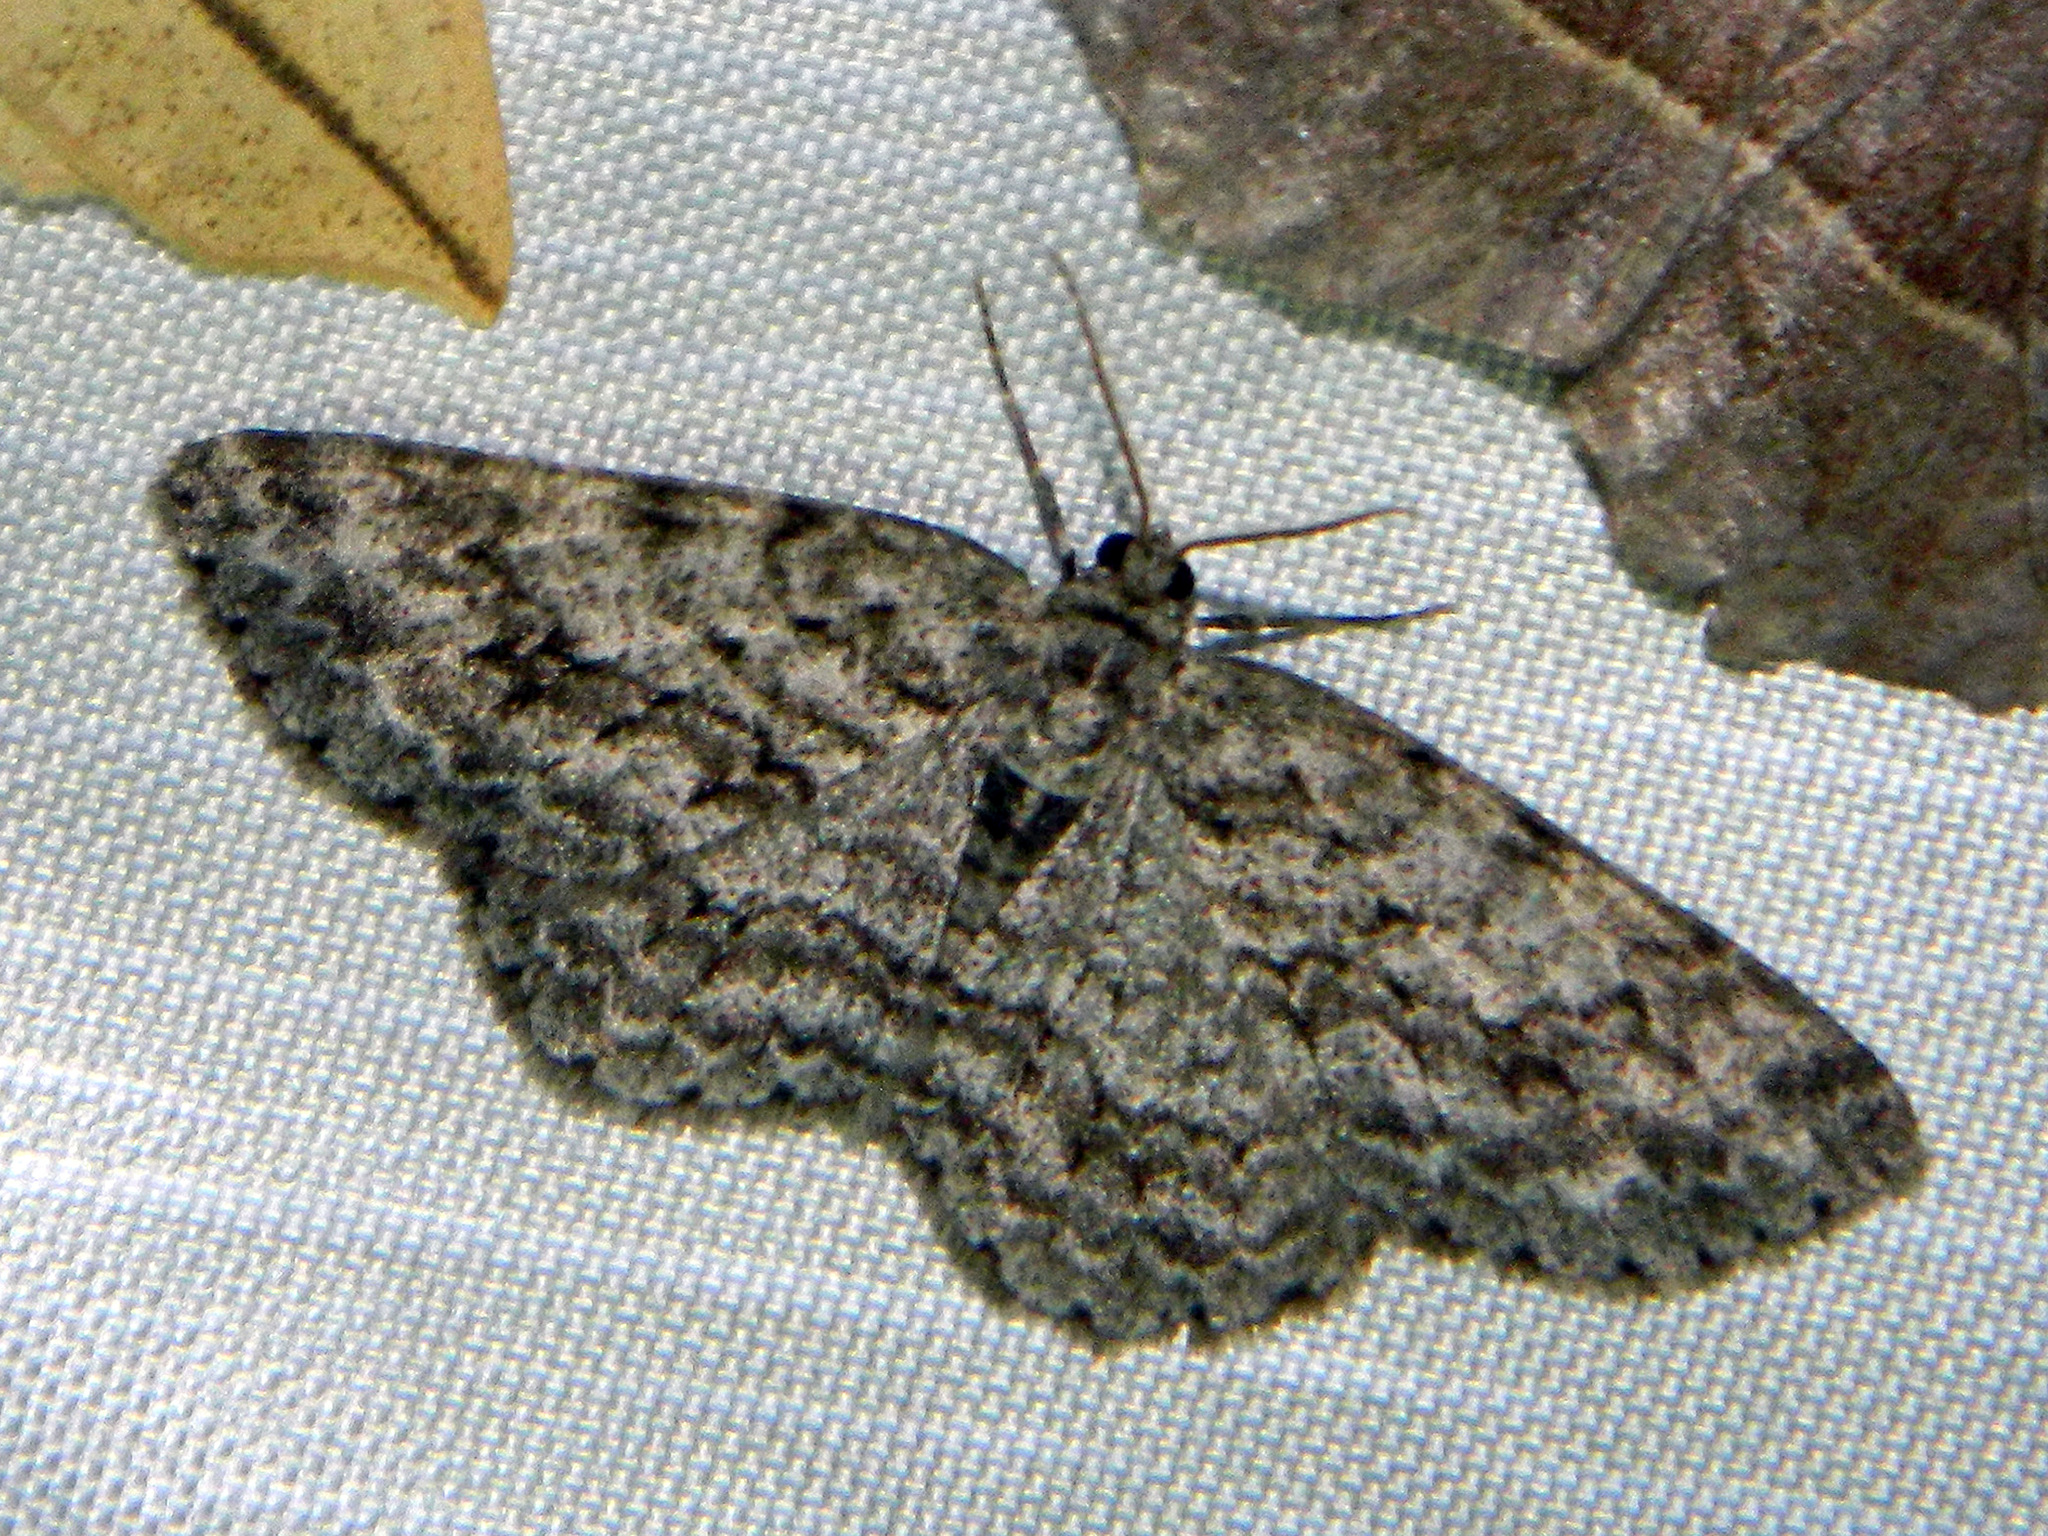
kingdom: Animalia
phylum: Arthropoda
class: Insecta
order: Lepidoptera
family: Geometridae
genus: Ectropis
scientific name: Ectropis crepuscularia
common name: Engrailed
